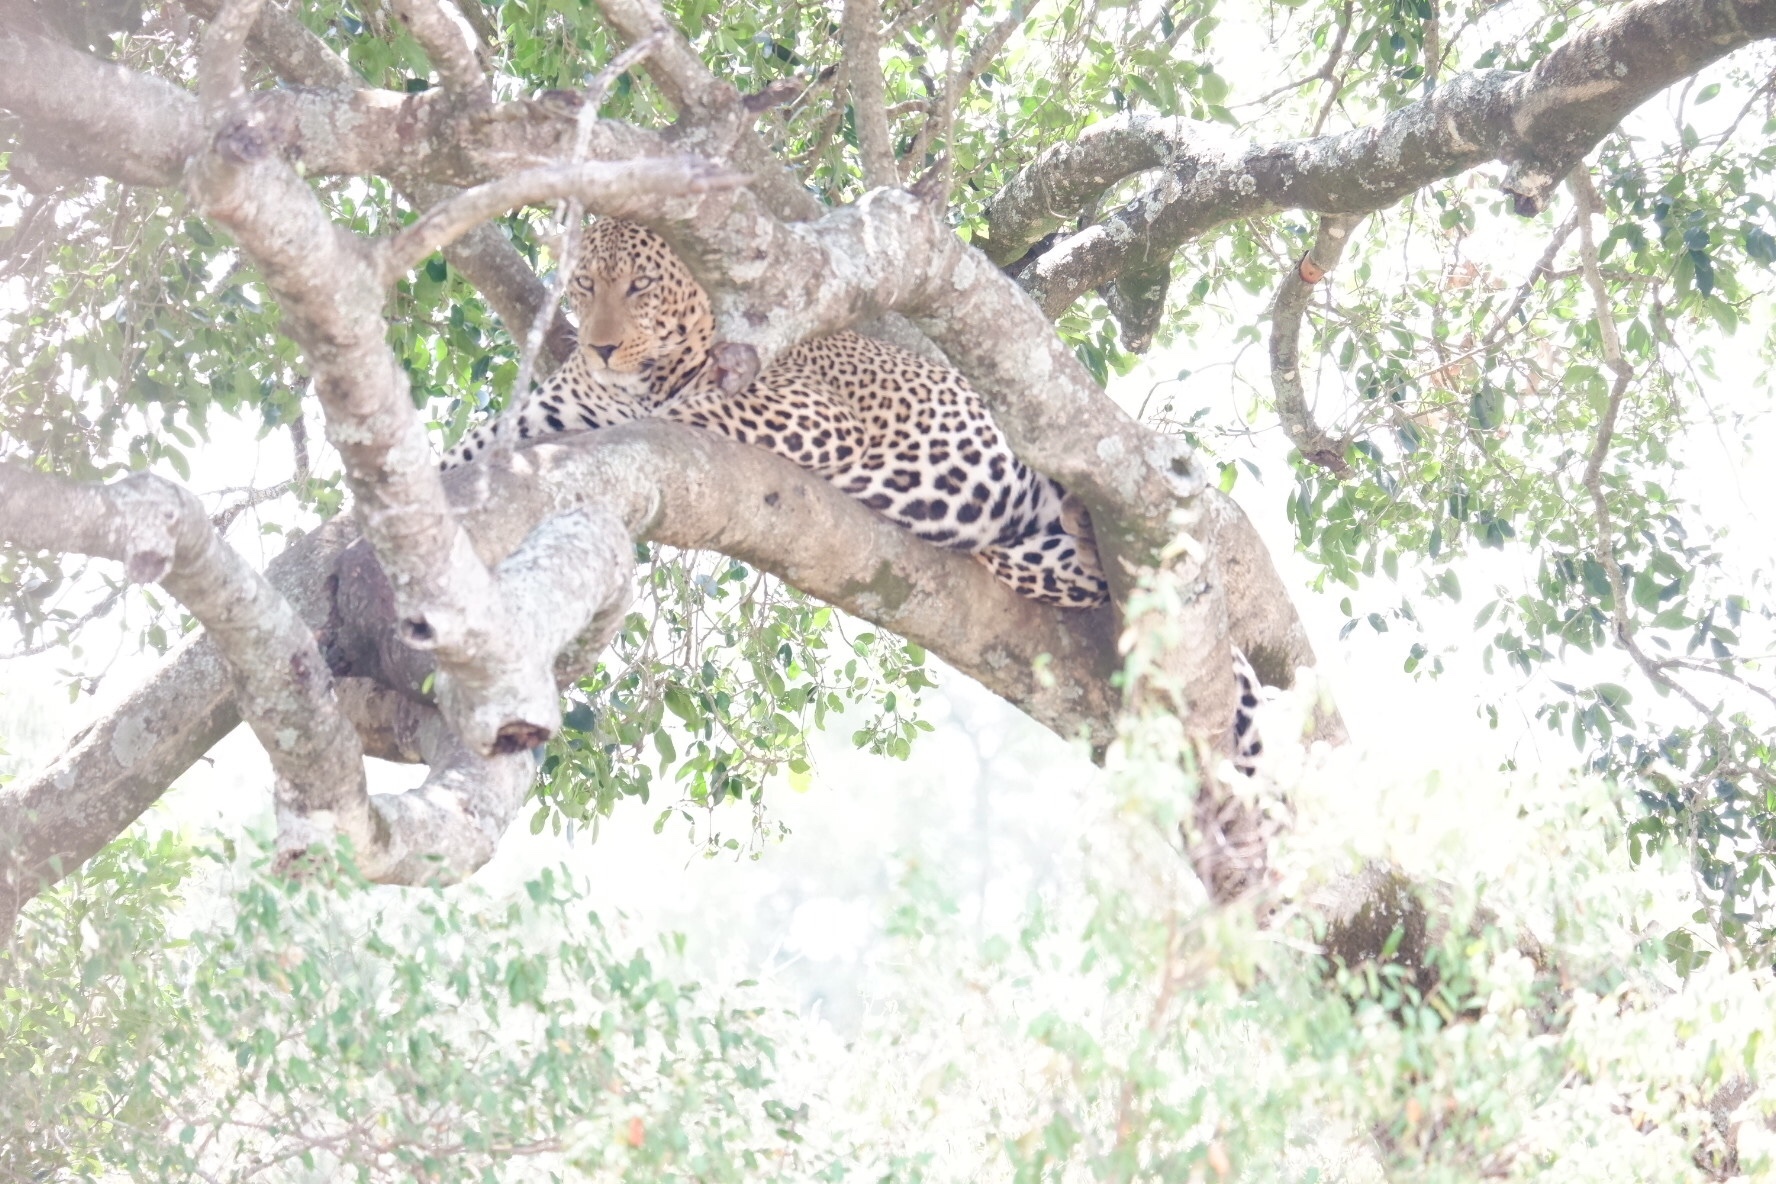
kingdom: Animalia
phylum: Chordata
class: Mammalia
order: Carnivora
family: Felidae
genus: Panthera
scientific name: Panthera pardus
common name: Leopard
